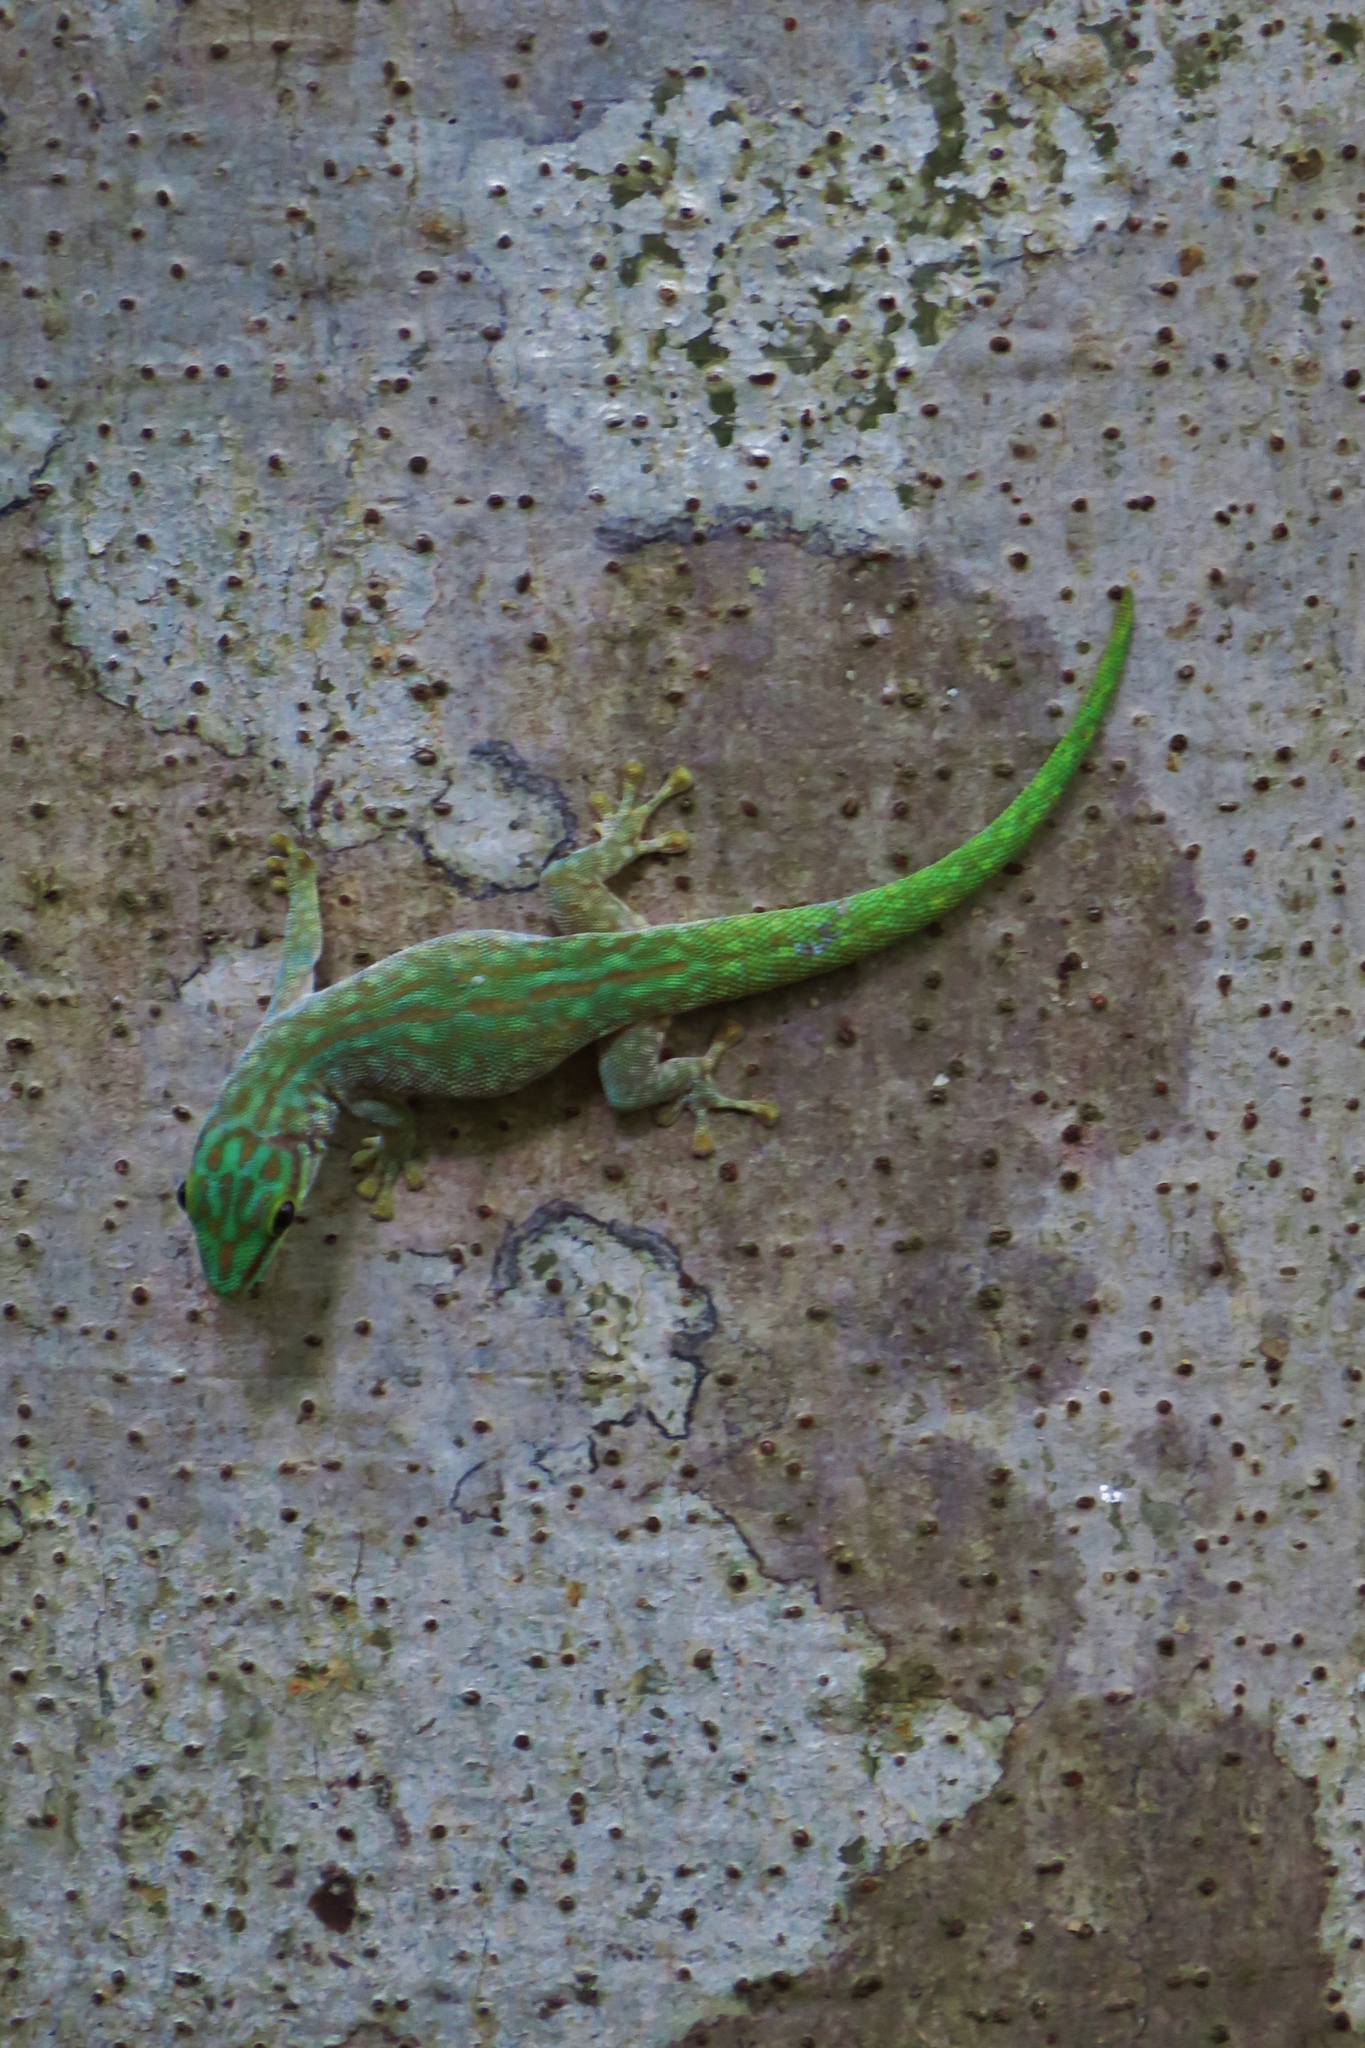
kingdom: Animalia
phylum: Chordata
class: Squamata
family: Gekkonidae
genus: Phelsuma
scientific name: Phelsuma abbotti
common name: Aldabra day gecko
